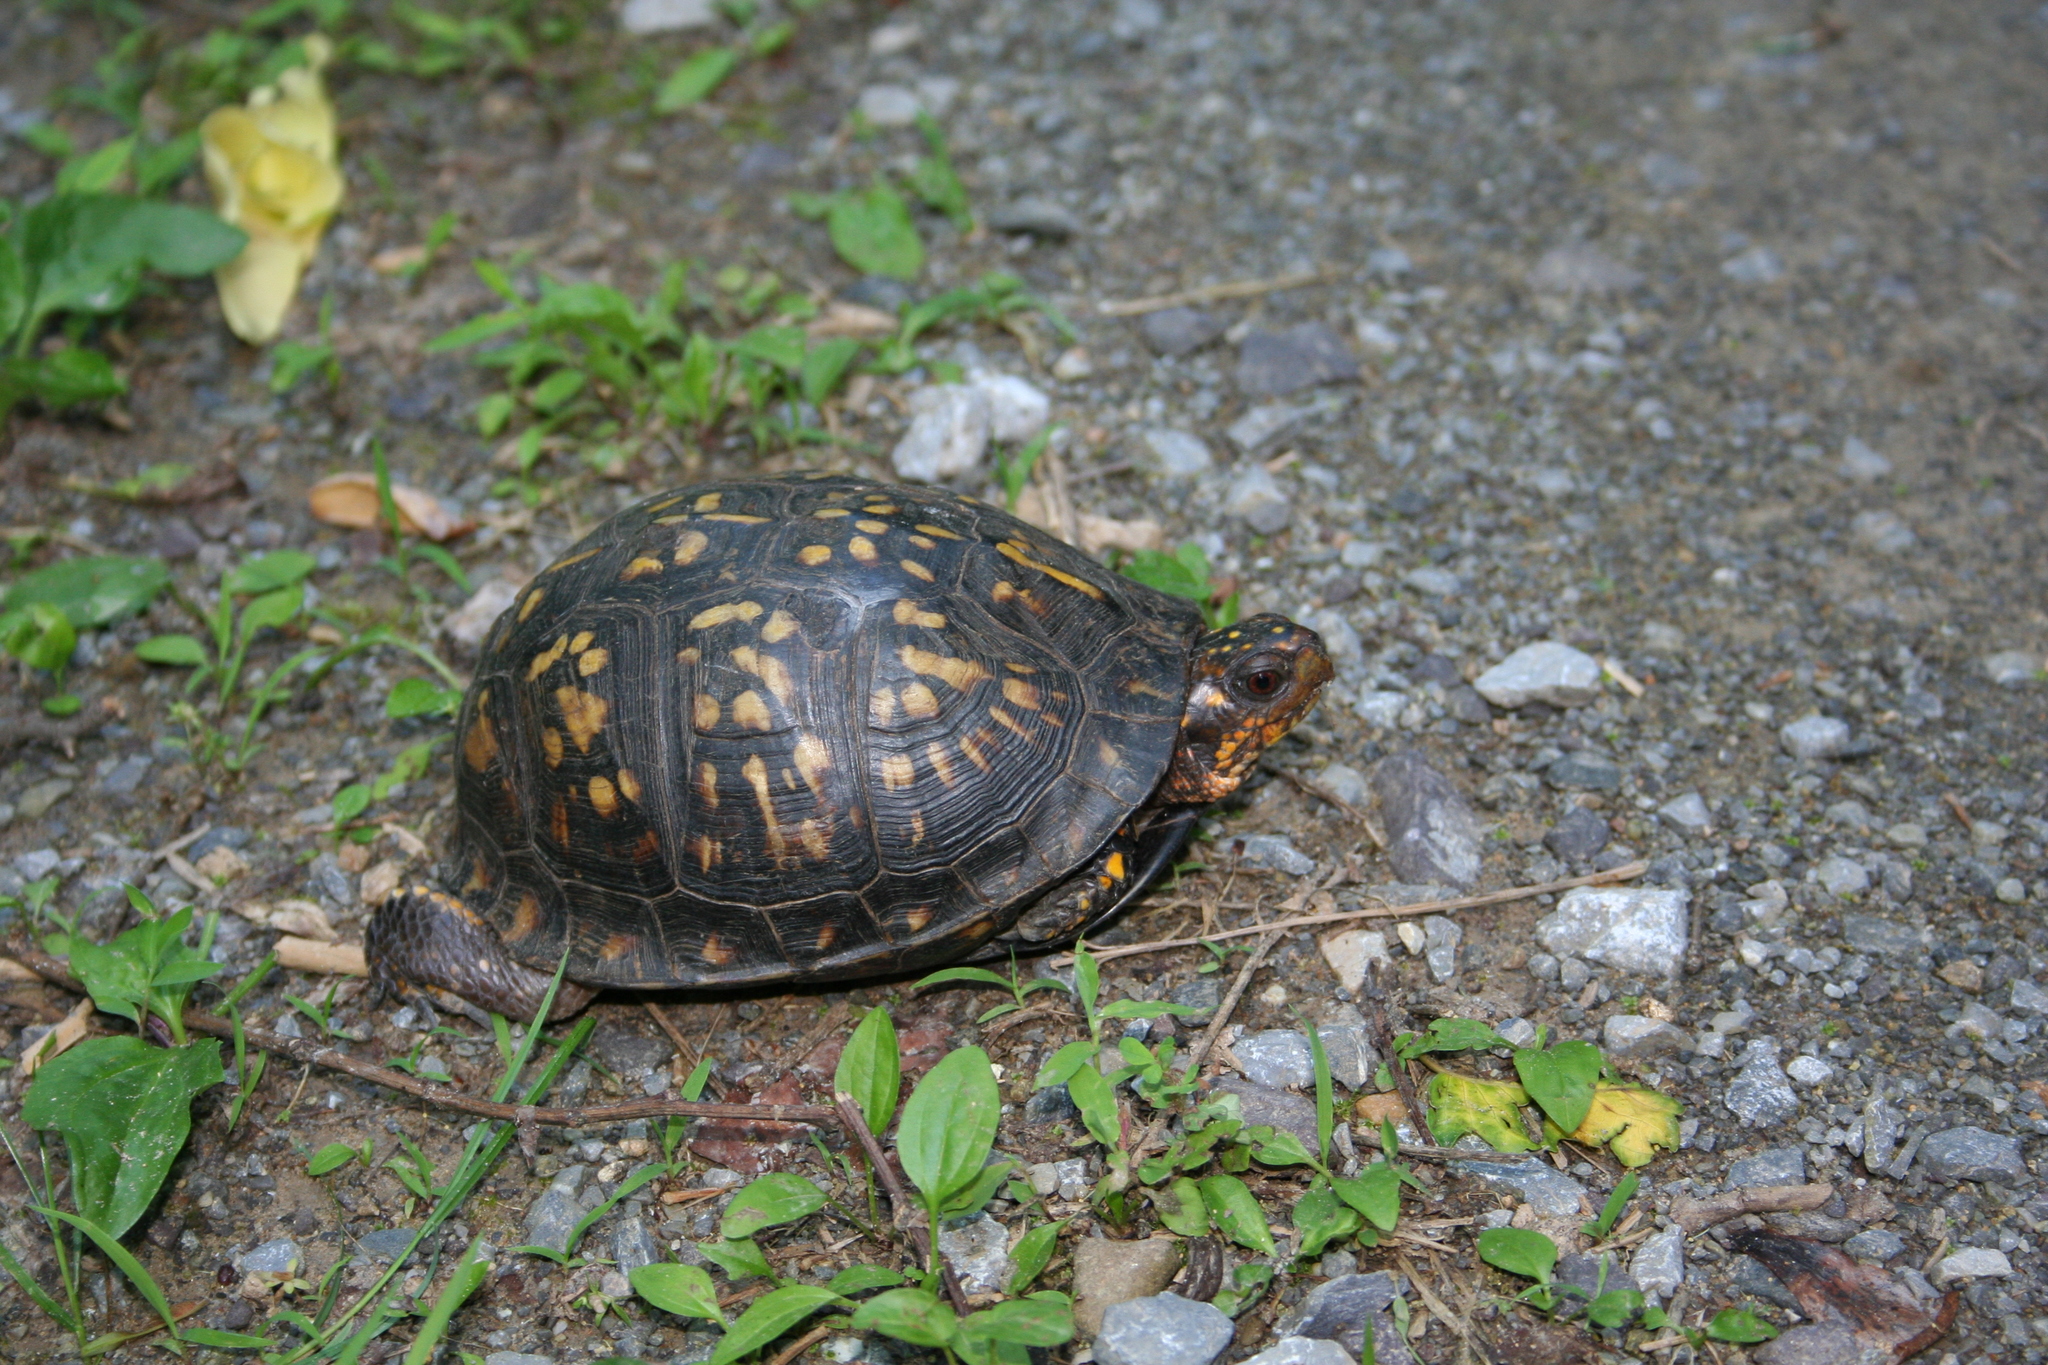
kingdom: Animalia
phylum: Chordata
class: Testudines
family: Emydidae
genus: Terrapene
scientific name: Terrapene carolina
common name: Common box turtle
